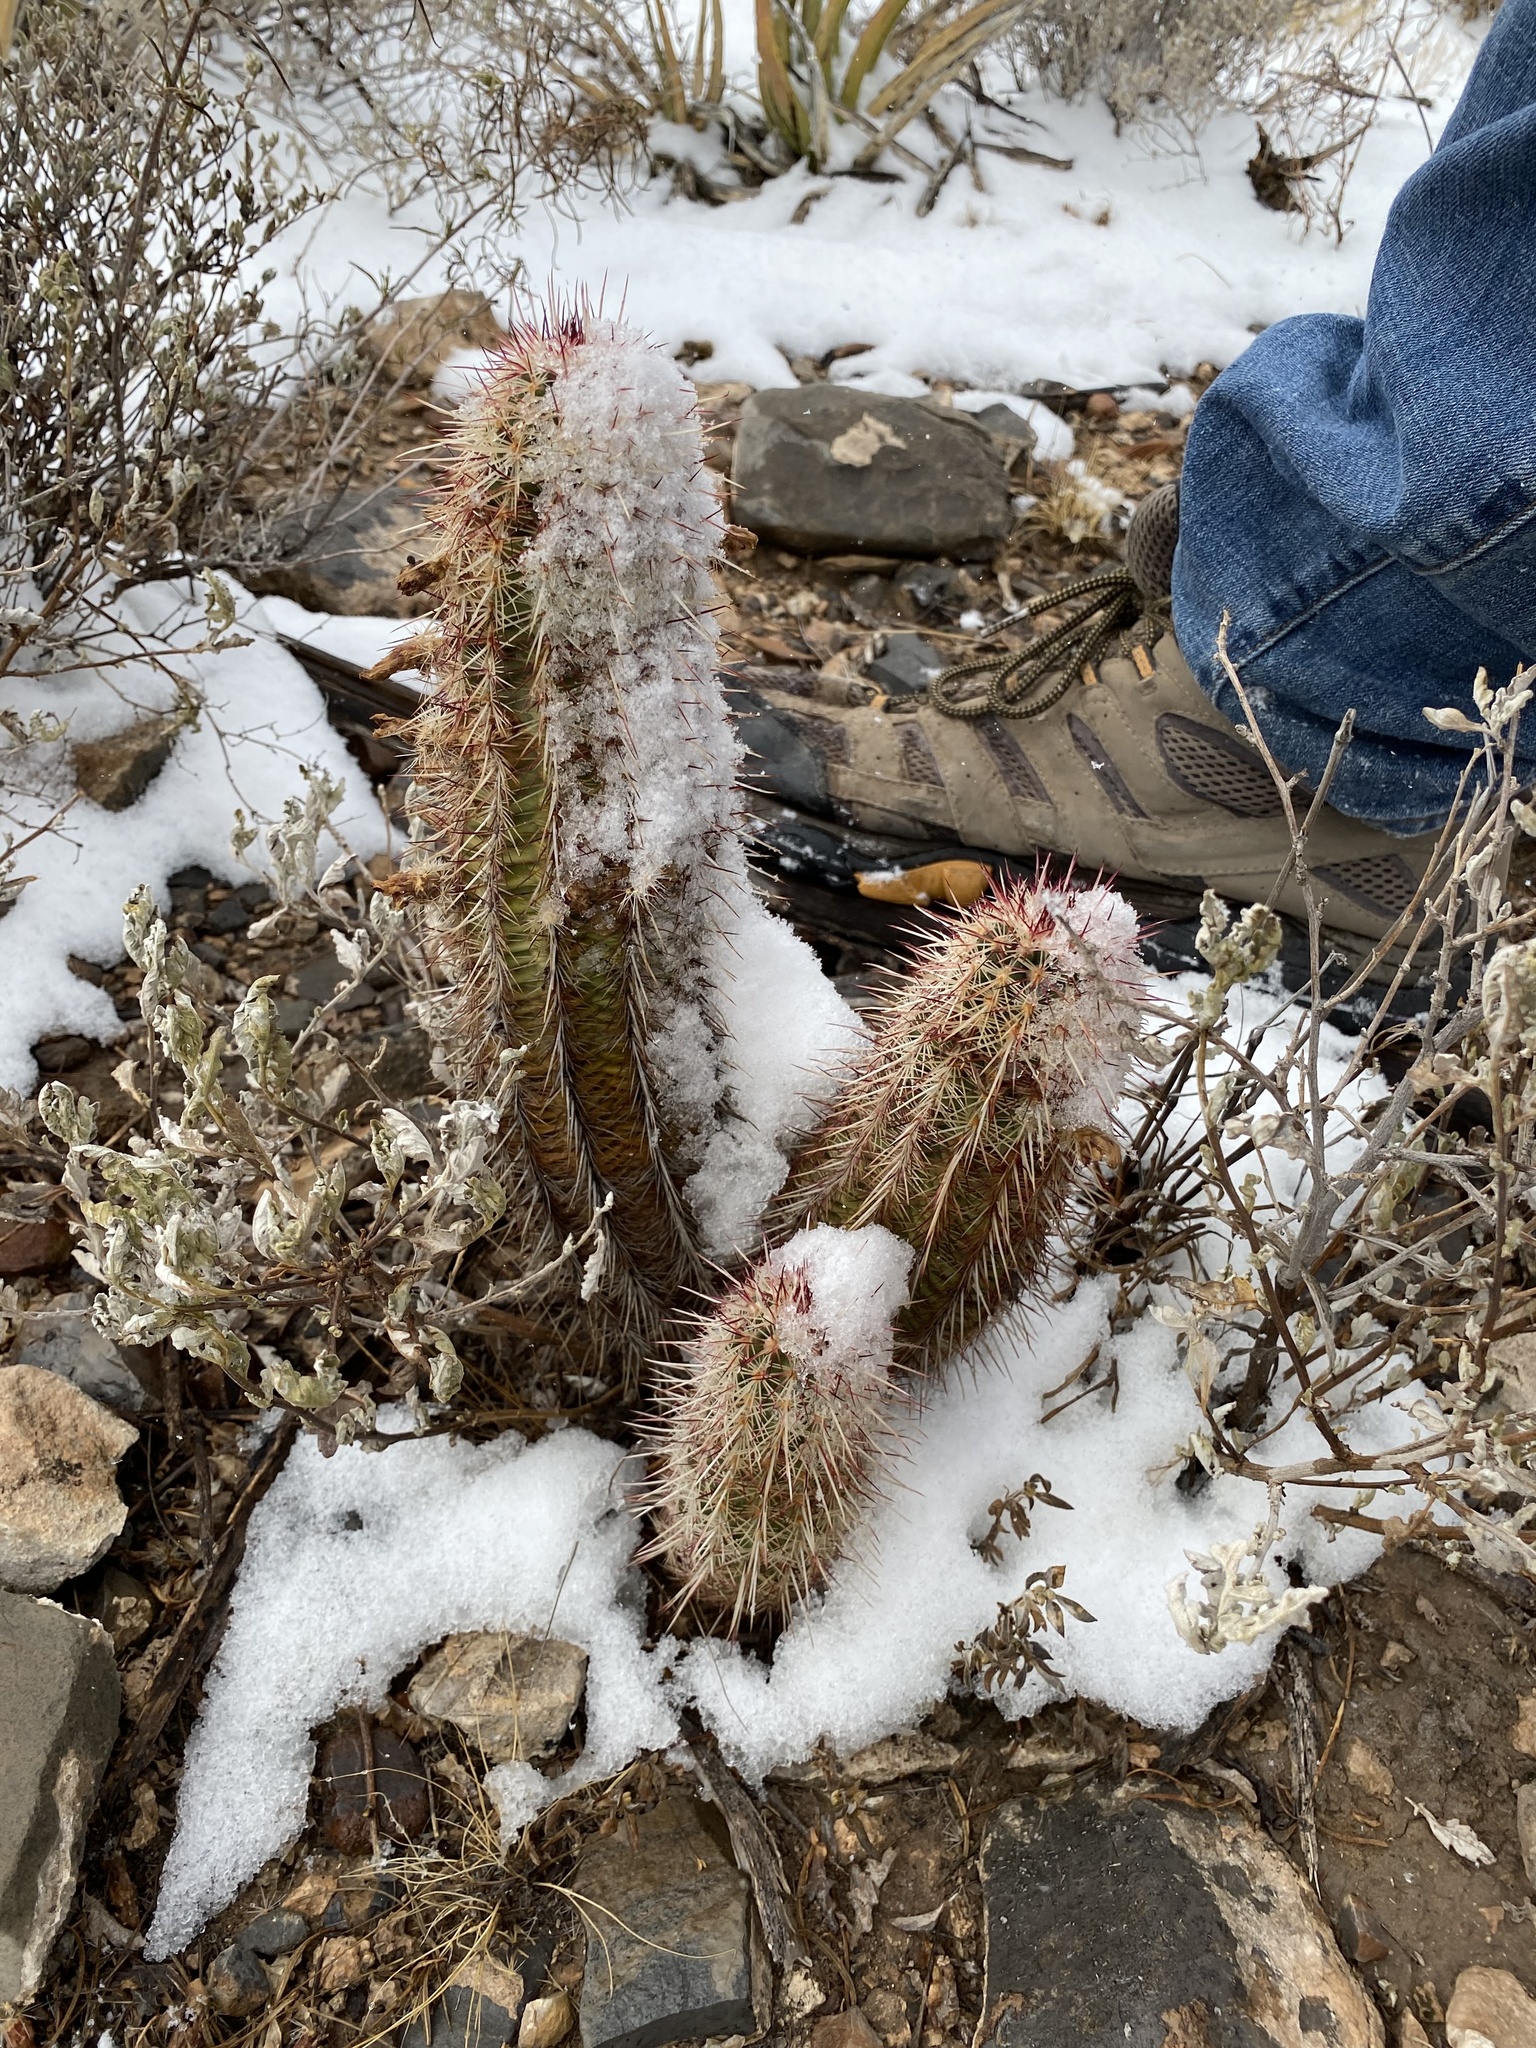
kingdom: Plantae
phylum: Tracheophyta
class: Magnoliopsida
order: Caryophyllales
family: Cactaceae
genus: Echinocereus
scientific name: Echinocereus viridiflorus
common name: Nylon hedgehog cactus
